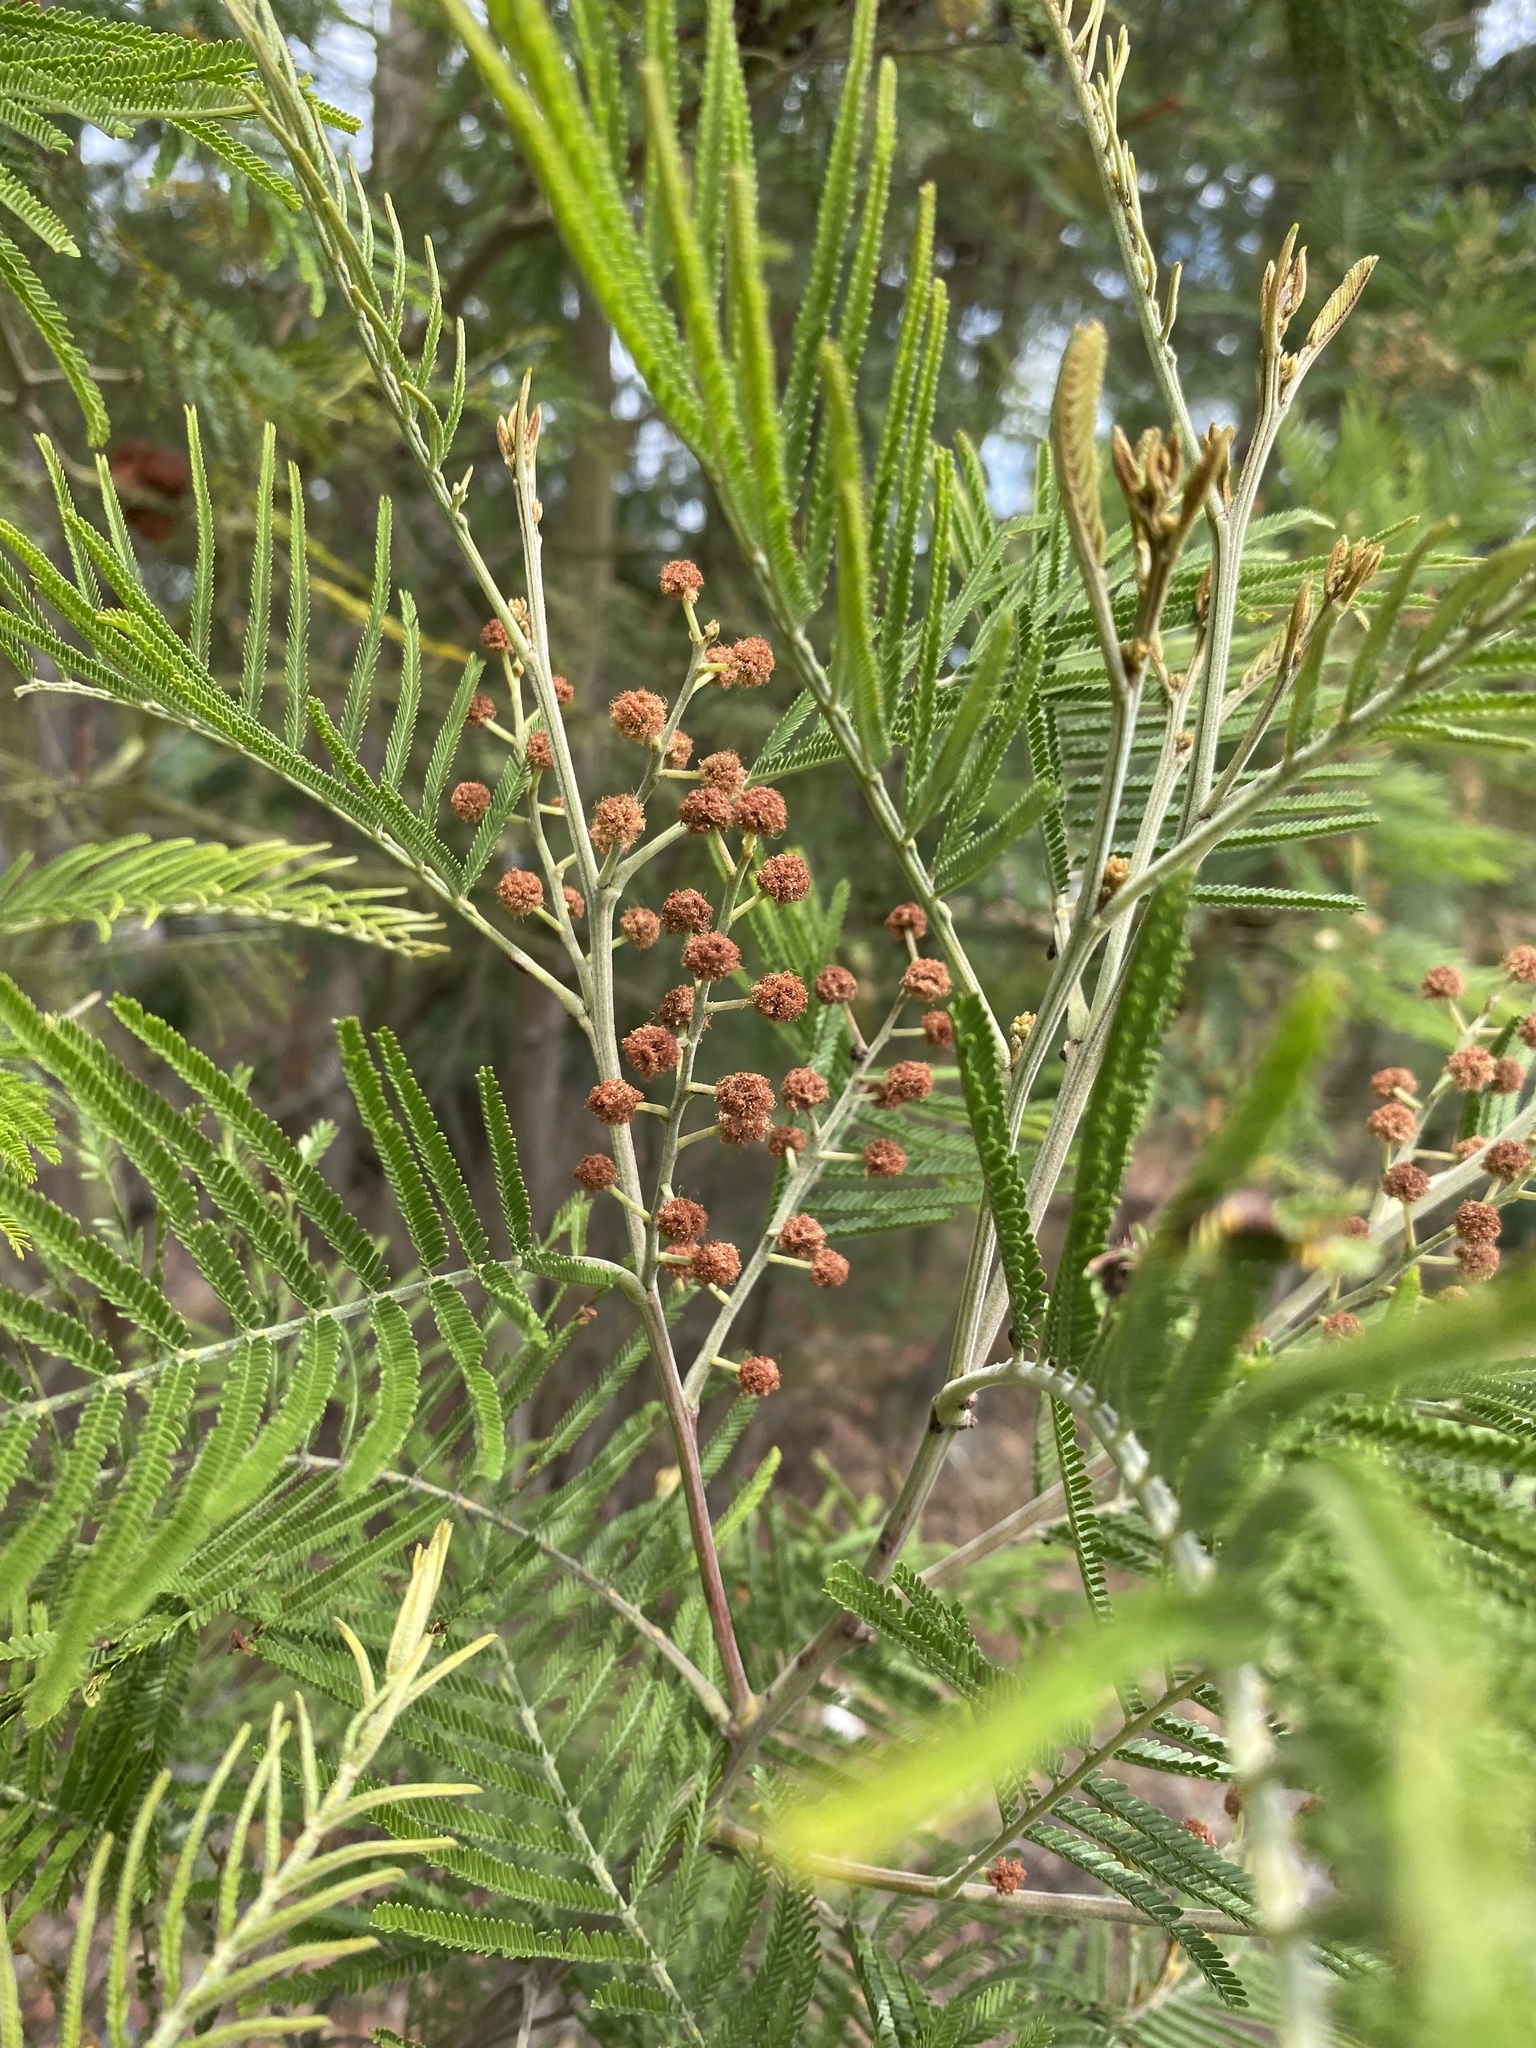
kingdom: Plantae
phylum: Tracheophyta
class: Magnoliopsida
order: Fabales
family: Fabaceae
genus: Acacia
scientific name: Acacia mearnsii
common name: Black wattle
